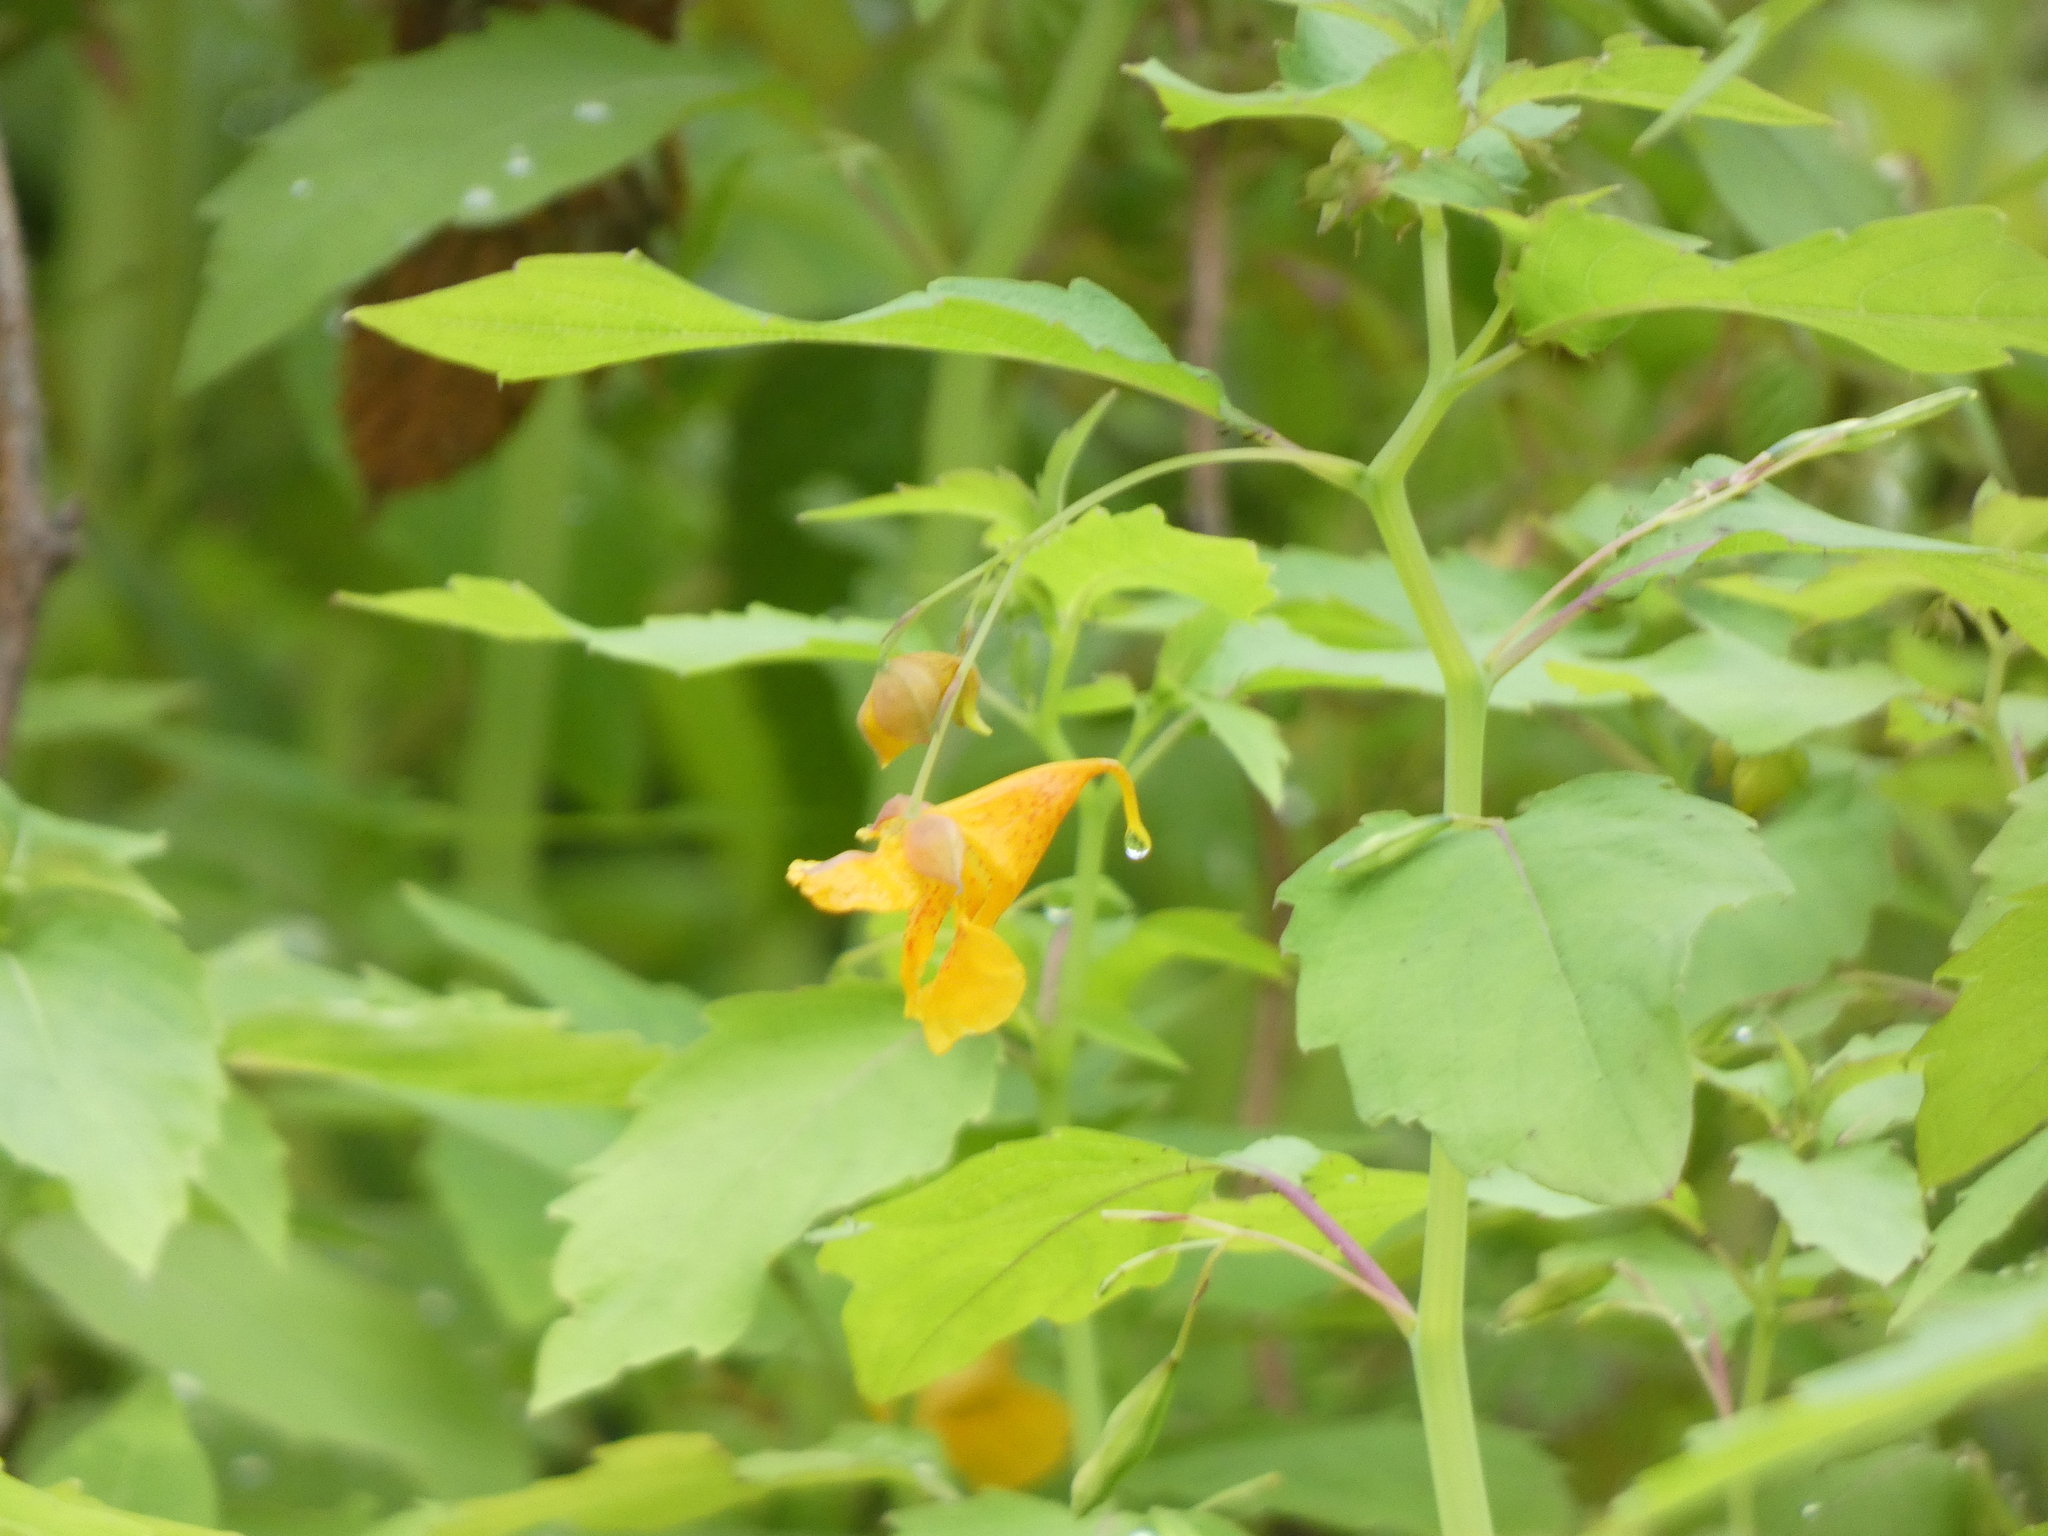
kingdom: Plantae
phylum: Tracheophyta
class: Magnoliopsida
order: Ericales
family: Balsaminaceae
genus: Impatiens
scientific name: Impatiens capensis
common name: Orange balsam
